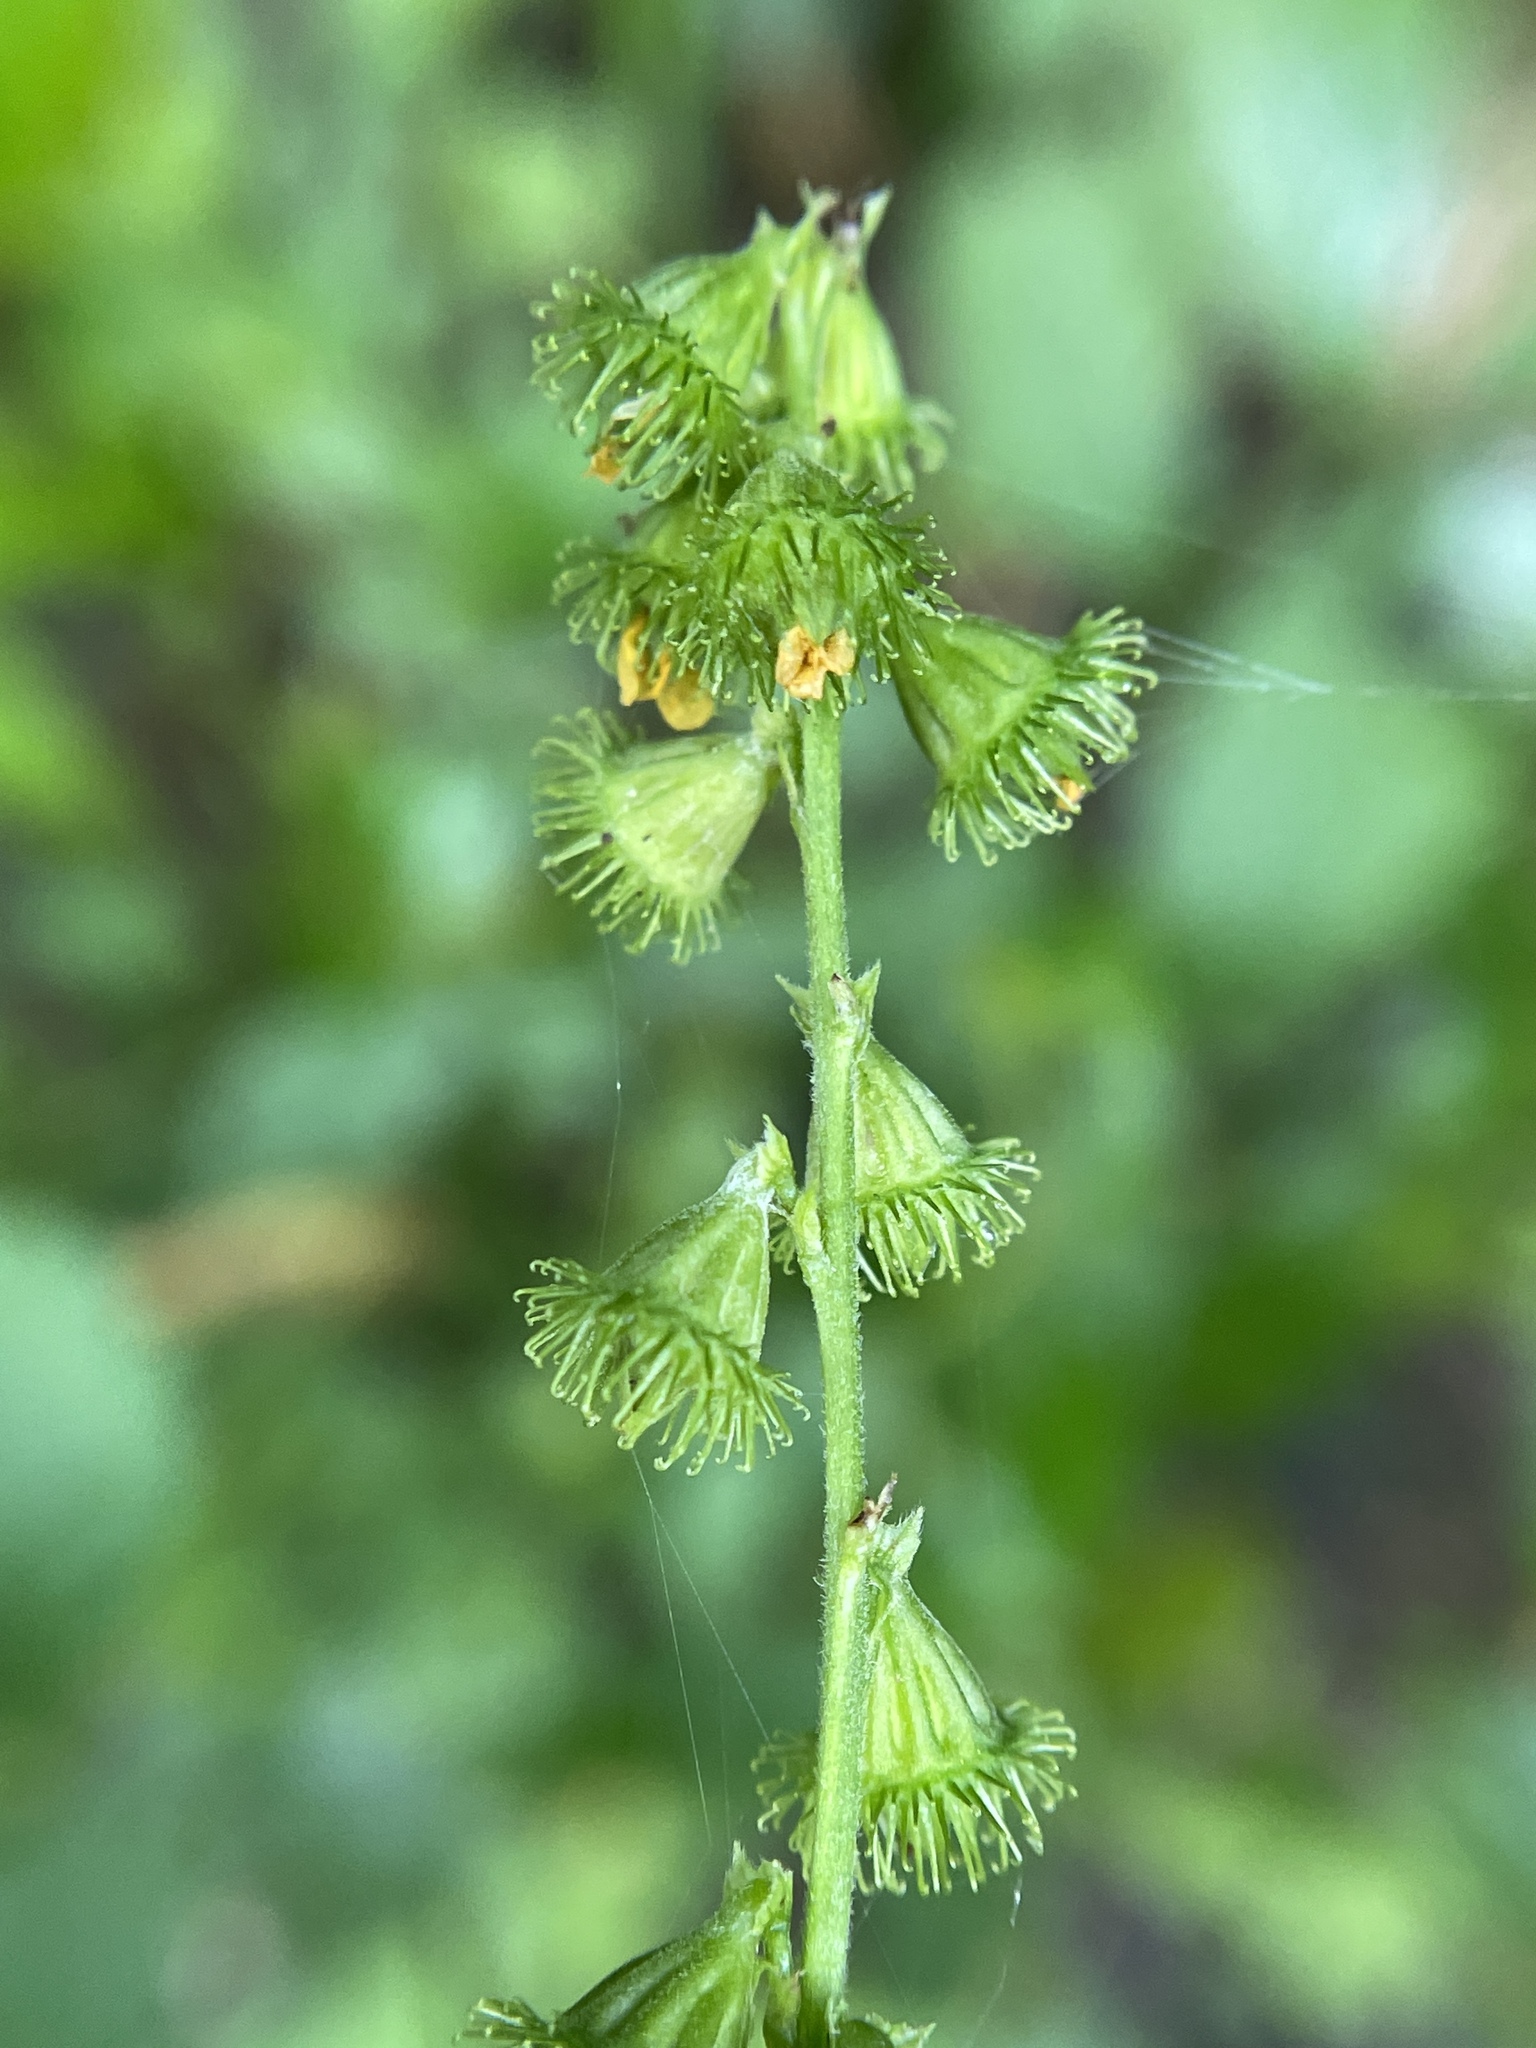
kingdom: Plantae
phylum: Tracheophyta
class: Magnoliopsida
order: Rosales
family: Rosaceae
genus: Agrimonia
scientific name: Agrimonia striata
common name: Britton's agrimony
